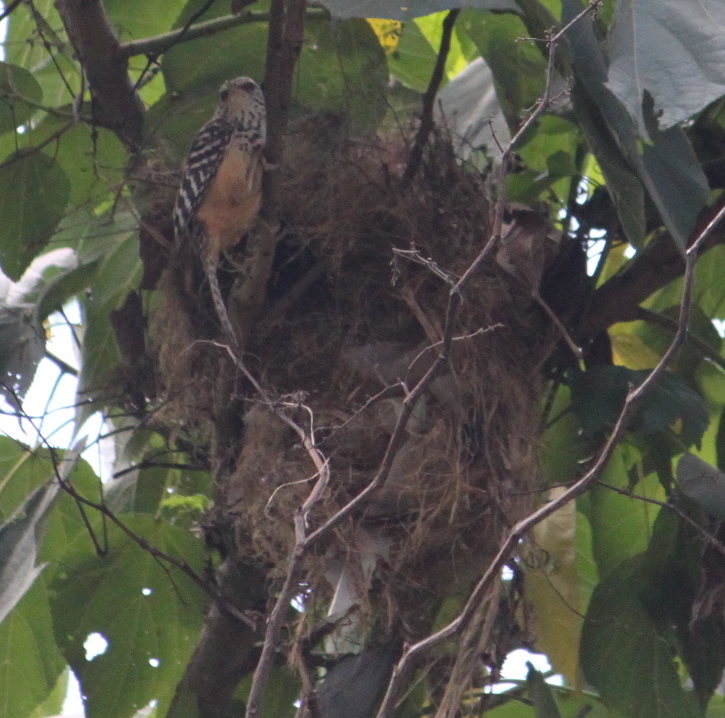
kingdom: Animalia
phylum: Chordata
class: Aves
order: Passeriformes
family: Troglodytidae
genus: Campylorhynchus
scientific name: Campylorhynchus zonatus
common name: Band-backed wren
